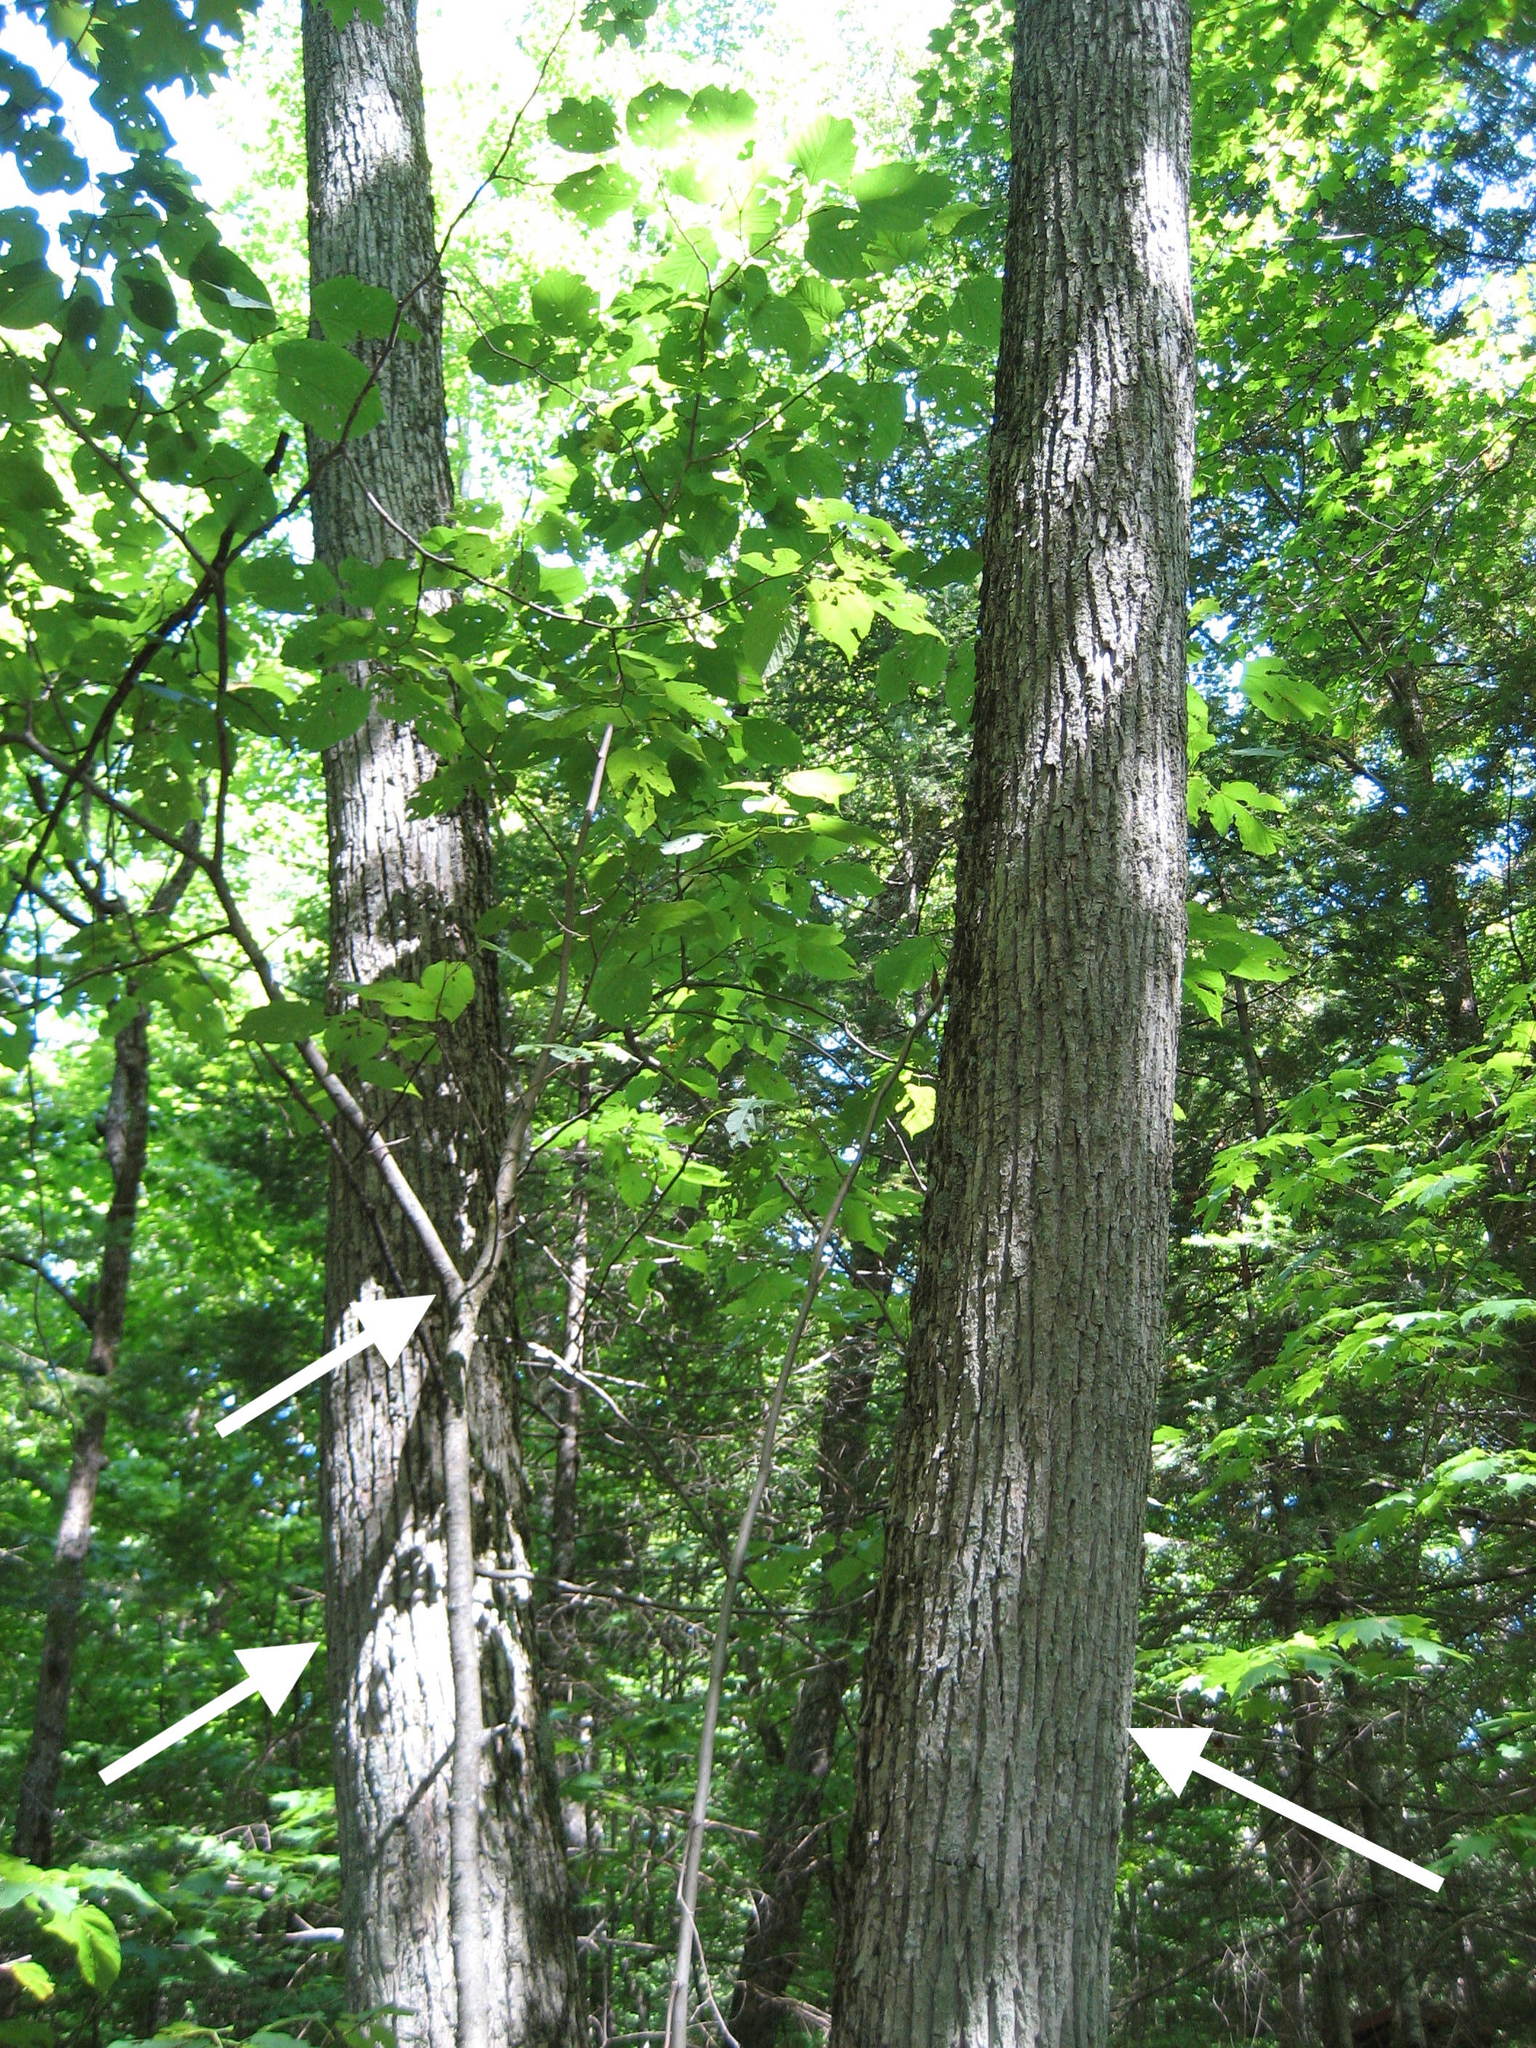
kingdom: Plantae
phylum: Tracheophyta
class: Magnoliopsida
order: Malvales
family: Malvaceae
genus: Tilia
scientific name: Tilia americana
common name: Basswood
